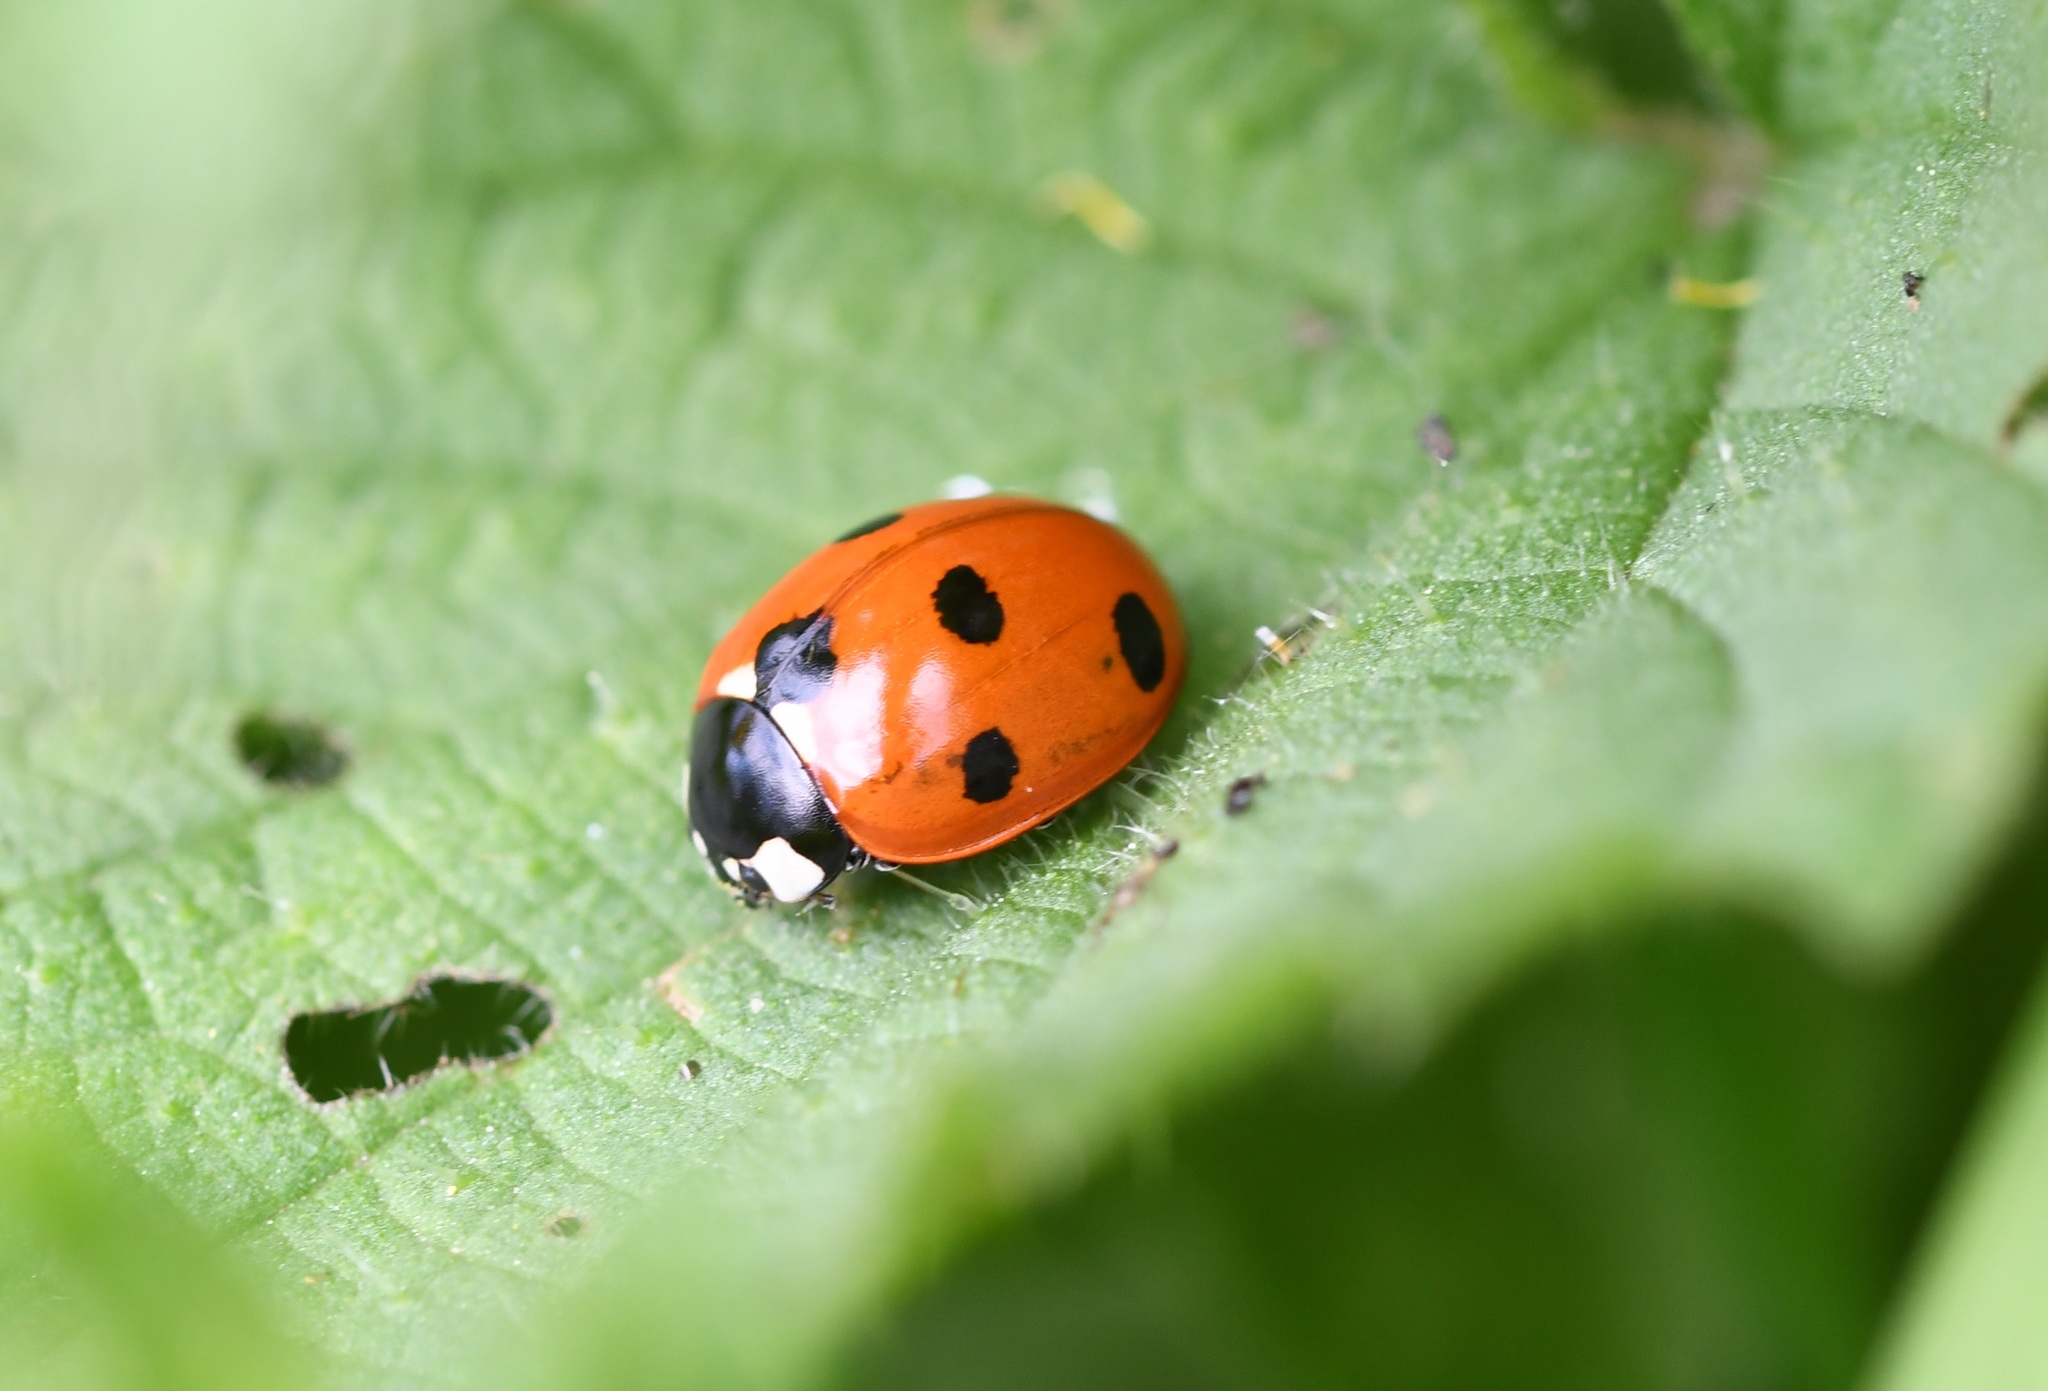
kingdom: Animalia
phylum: Arthropoda
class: Insecta
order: Coleoptera
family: Coccinellidae
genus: Coccinella
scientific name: Coccinella septempunctata
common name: Sevenspotted lady beetle
